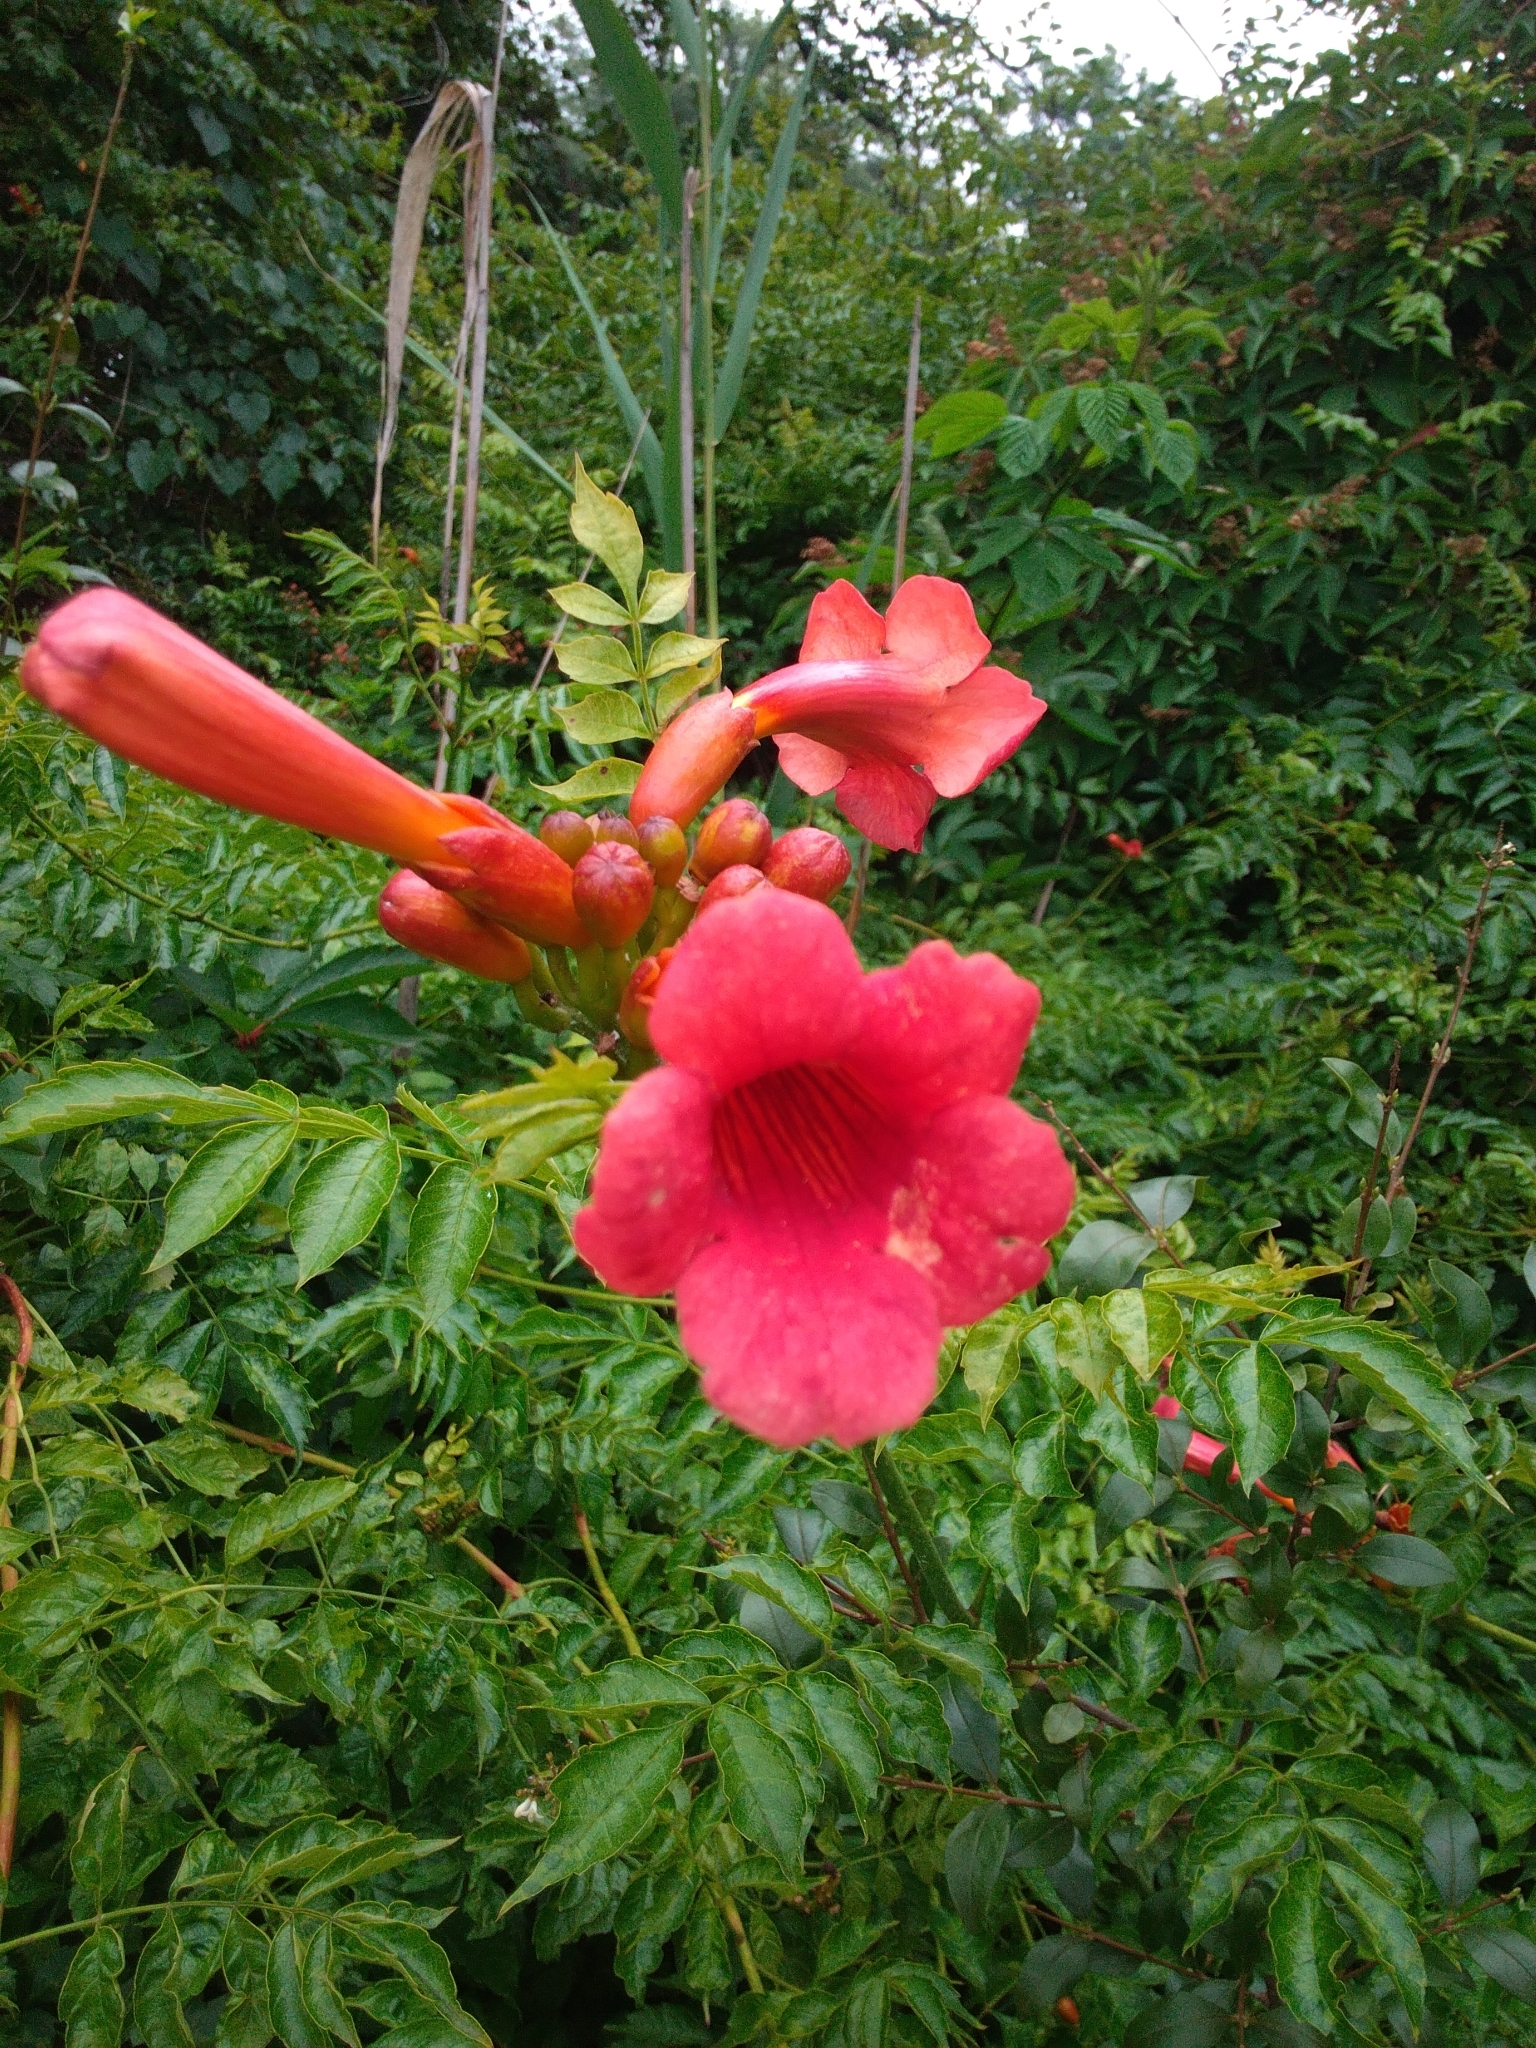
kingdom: Plantae
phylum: Tracheophyta
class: Magnoliopsida
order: Lamiales
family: Bignoniaceae
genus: Campsis
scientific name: Campsis radicans
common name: Trumpet-creeper
